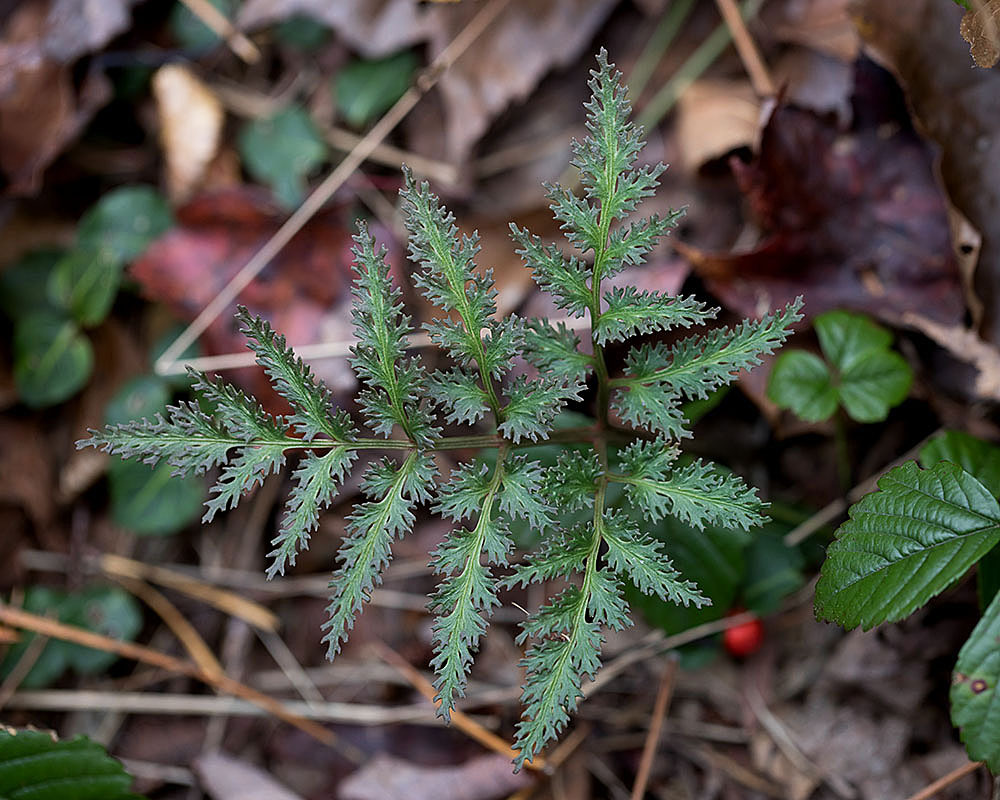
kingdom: Plantae
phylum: Tracheophyta
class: Polypodiopsida
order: Ophioglossales
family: Ophioglossaceae
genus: Sceptridium
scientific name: Sceptridium dissectum
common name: Cut-leaved grapefern
